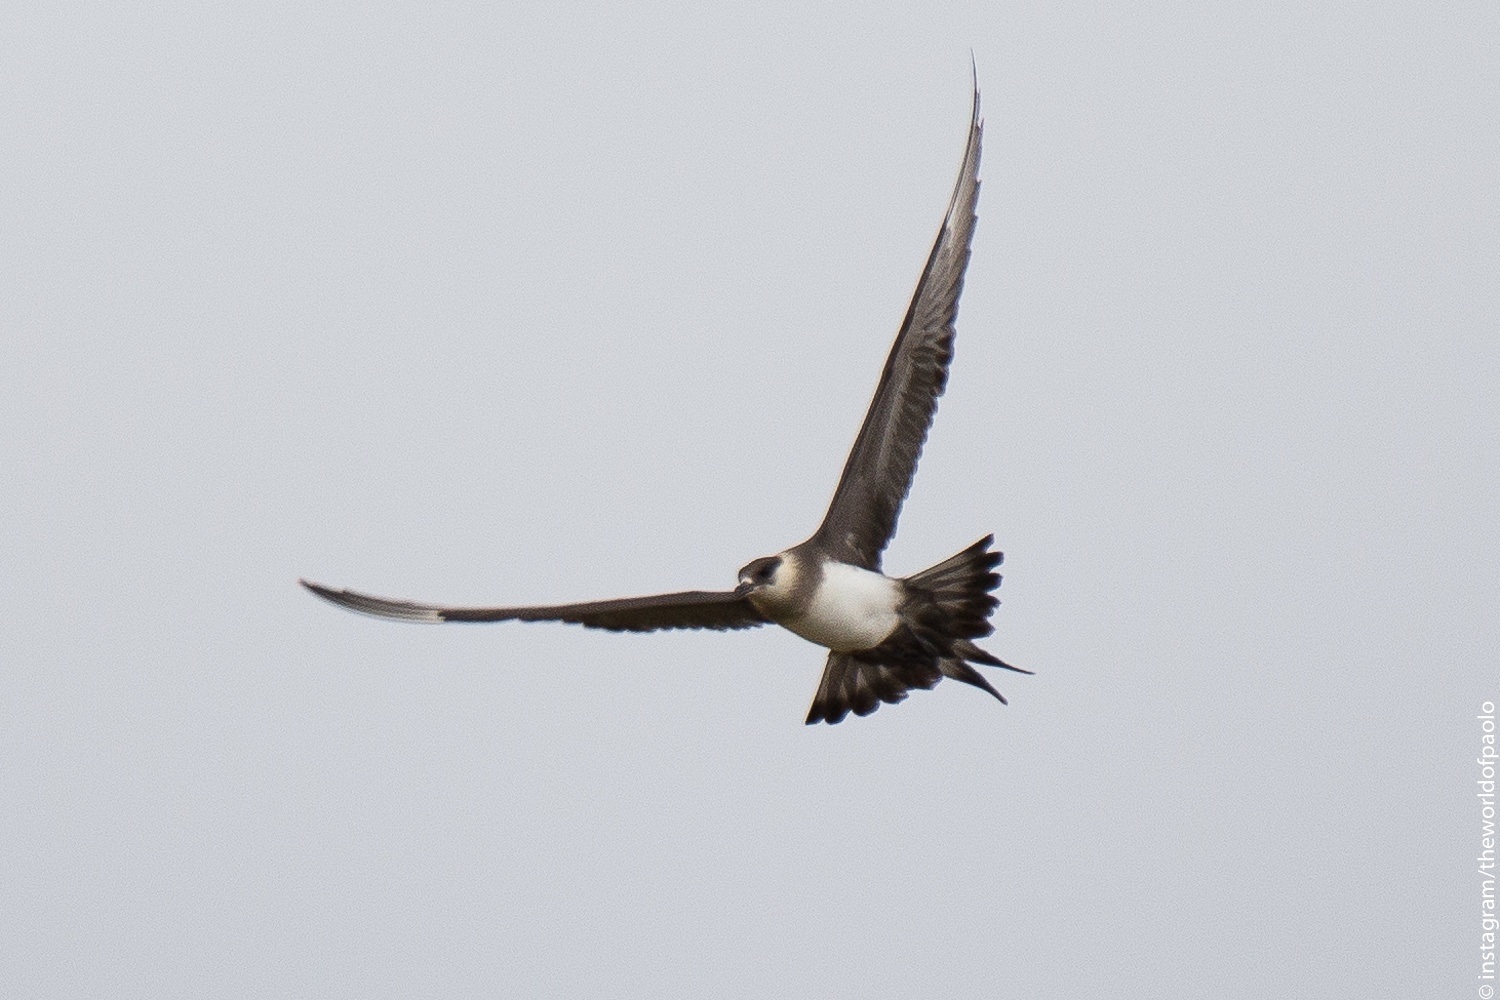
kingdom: Animalia
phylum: Chordata
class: Aves
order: Charadriiformes
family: Stercorariidae
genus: Stercorarius
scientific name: Stercorarius parasiticus
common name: Parasitic jaeger
